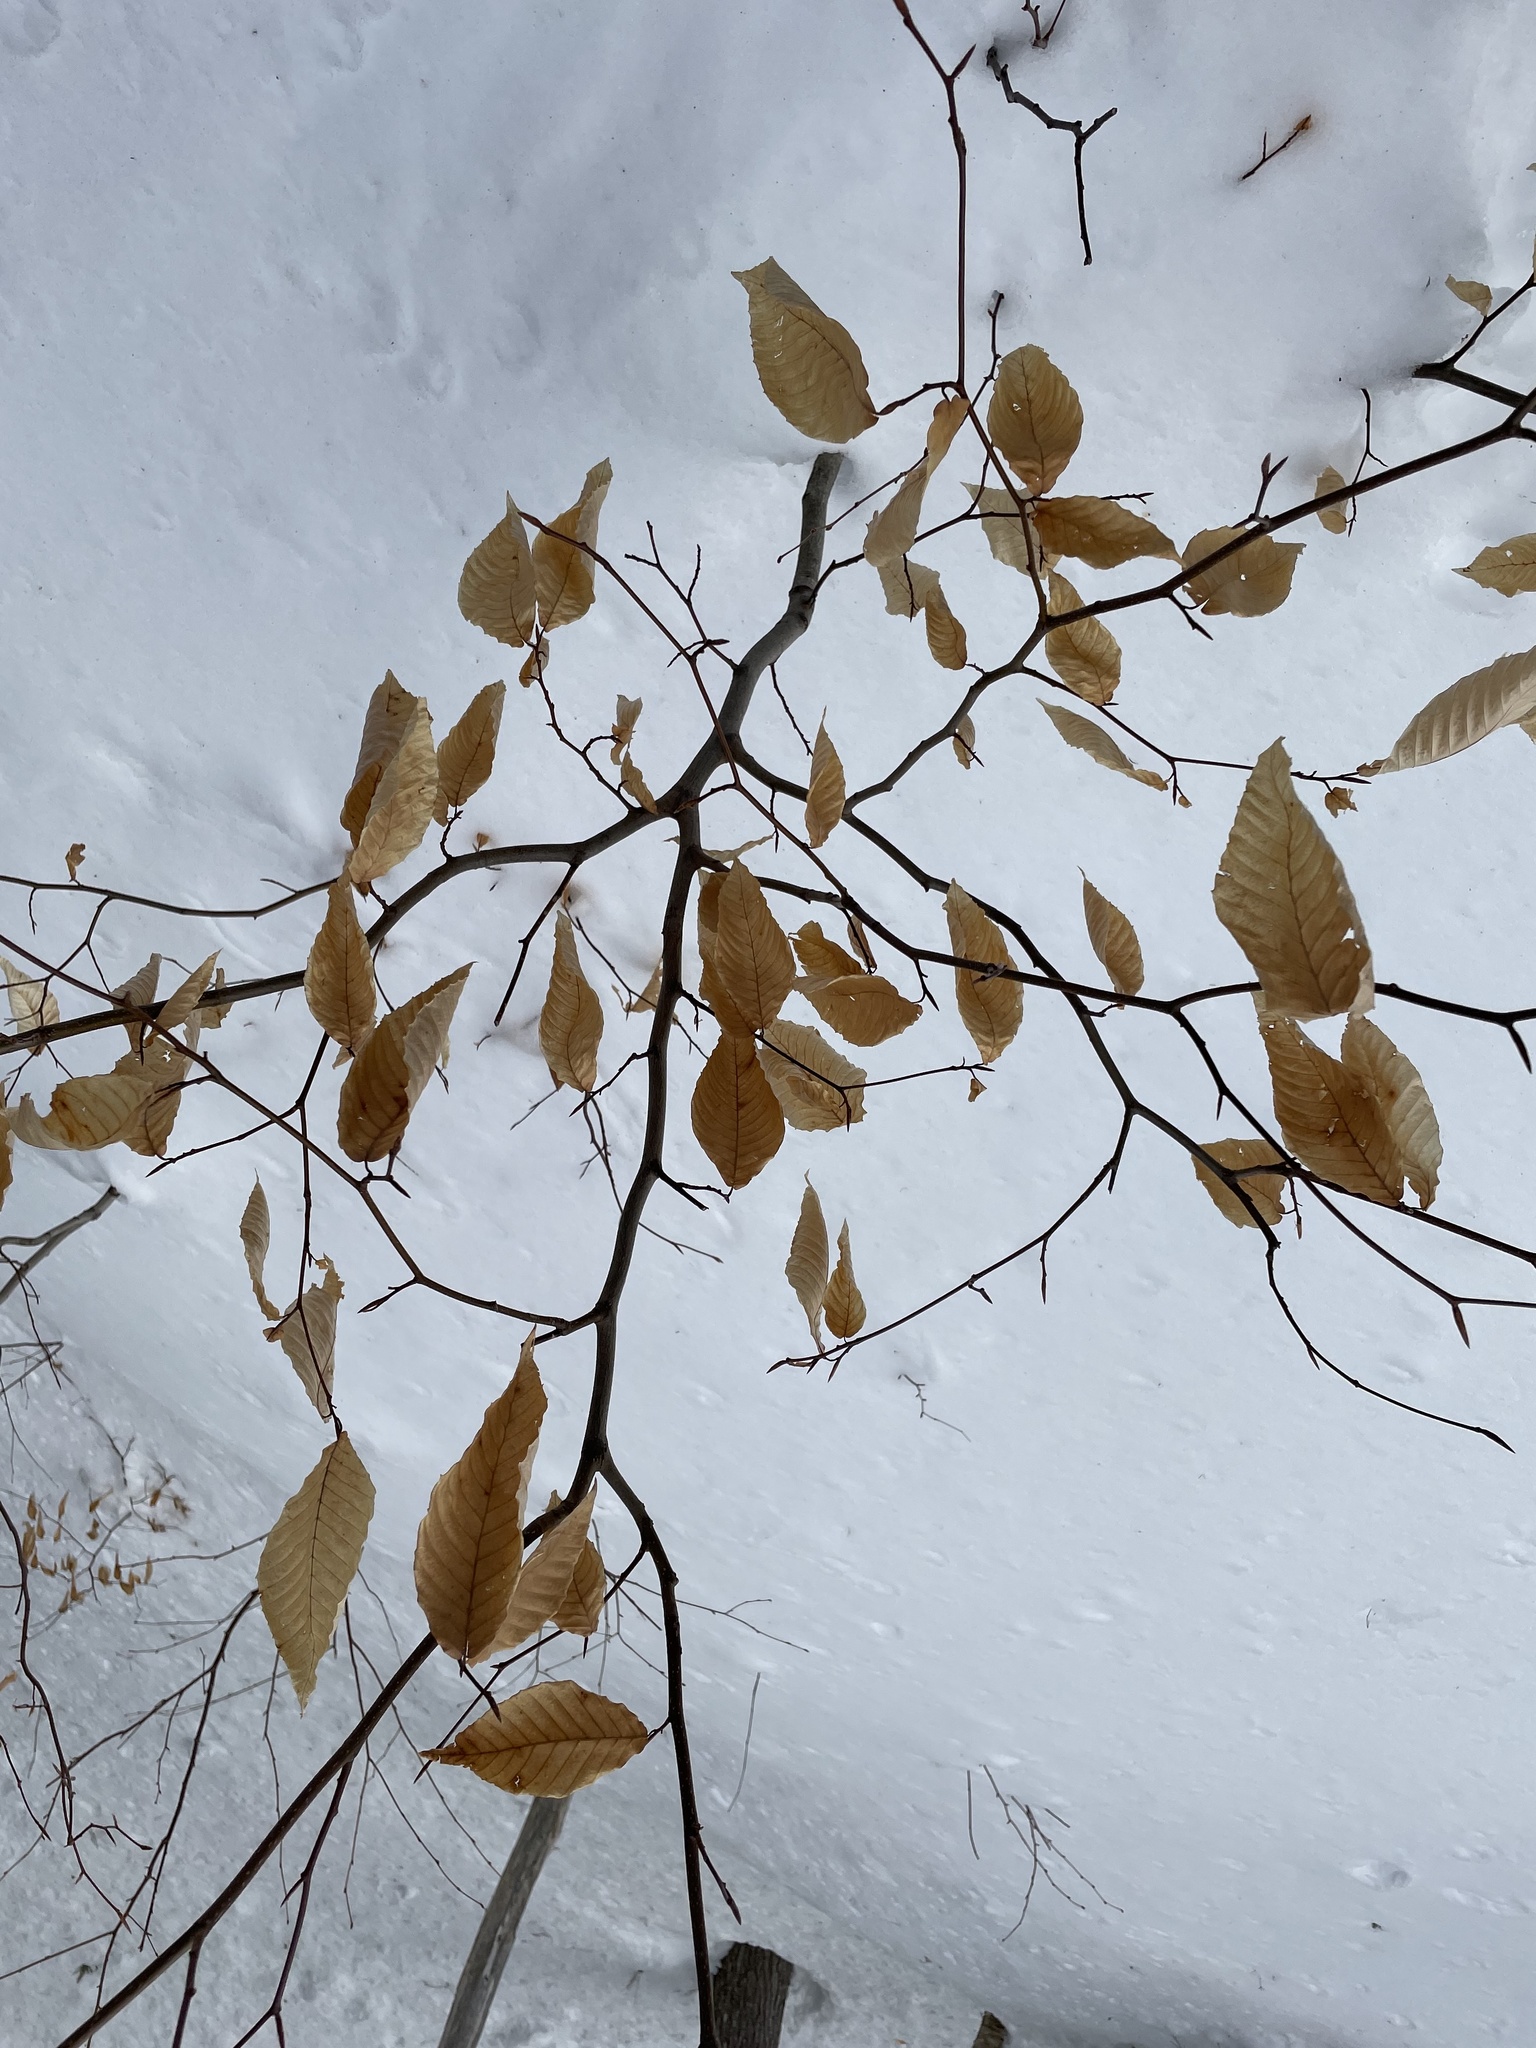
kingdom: Plantae
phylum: Tracheophyta
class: Magnoliopsida
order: Fagales
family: Fagaceae
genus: Fagus
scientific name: Fagus grandifolia
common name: American beech
